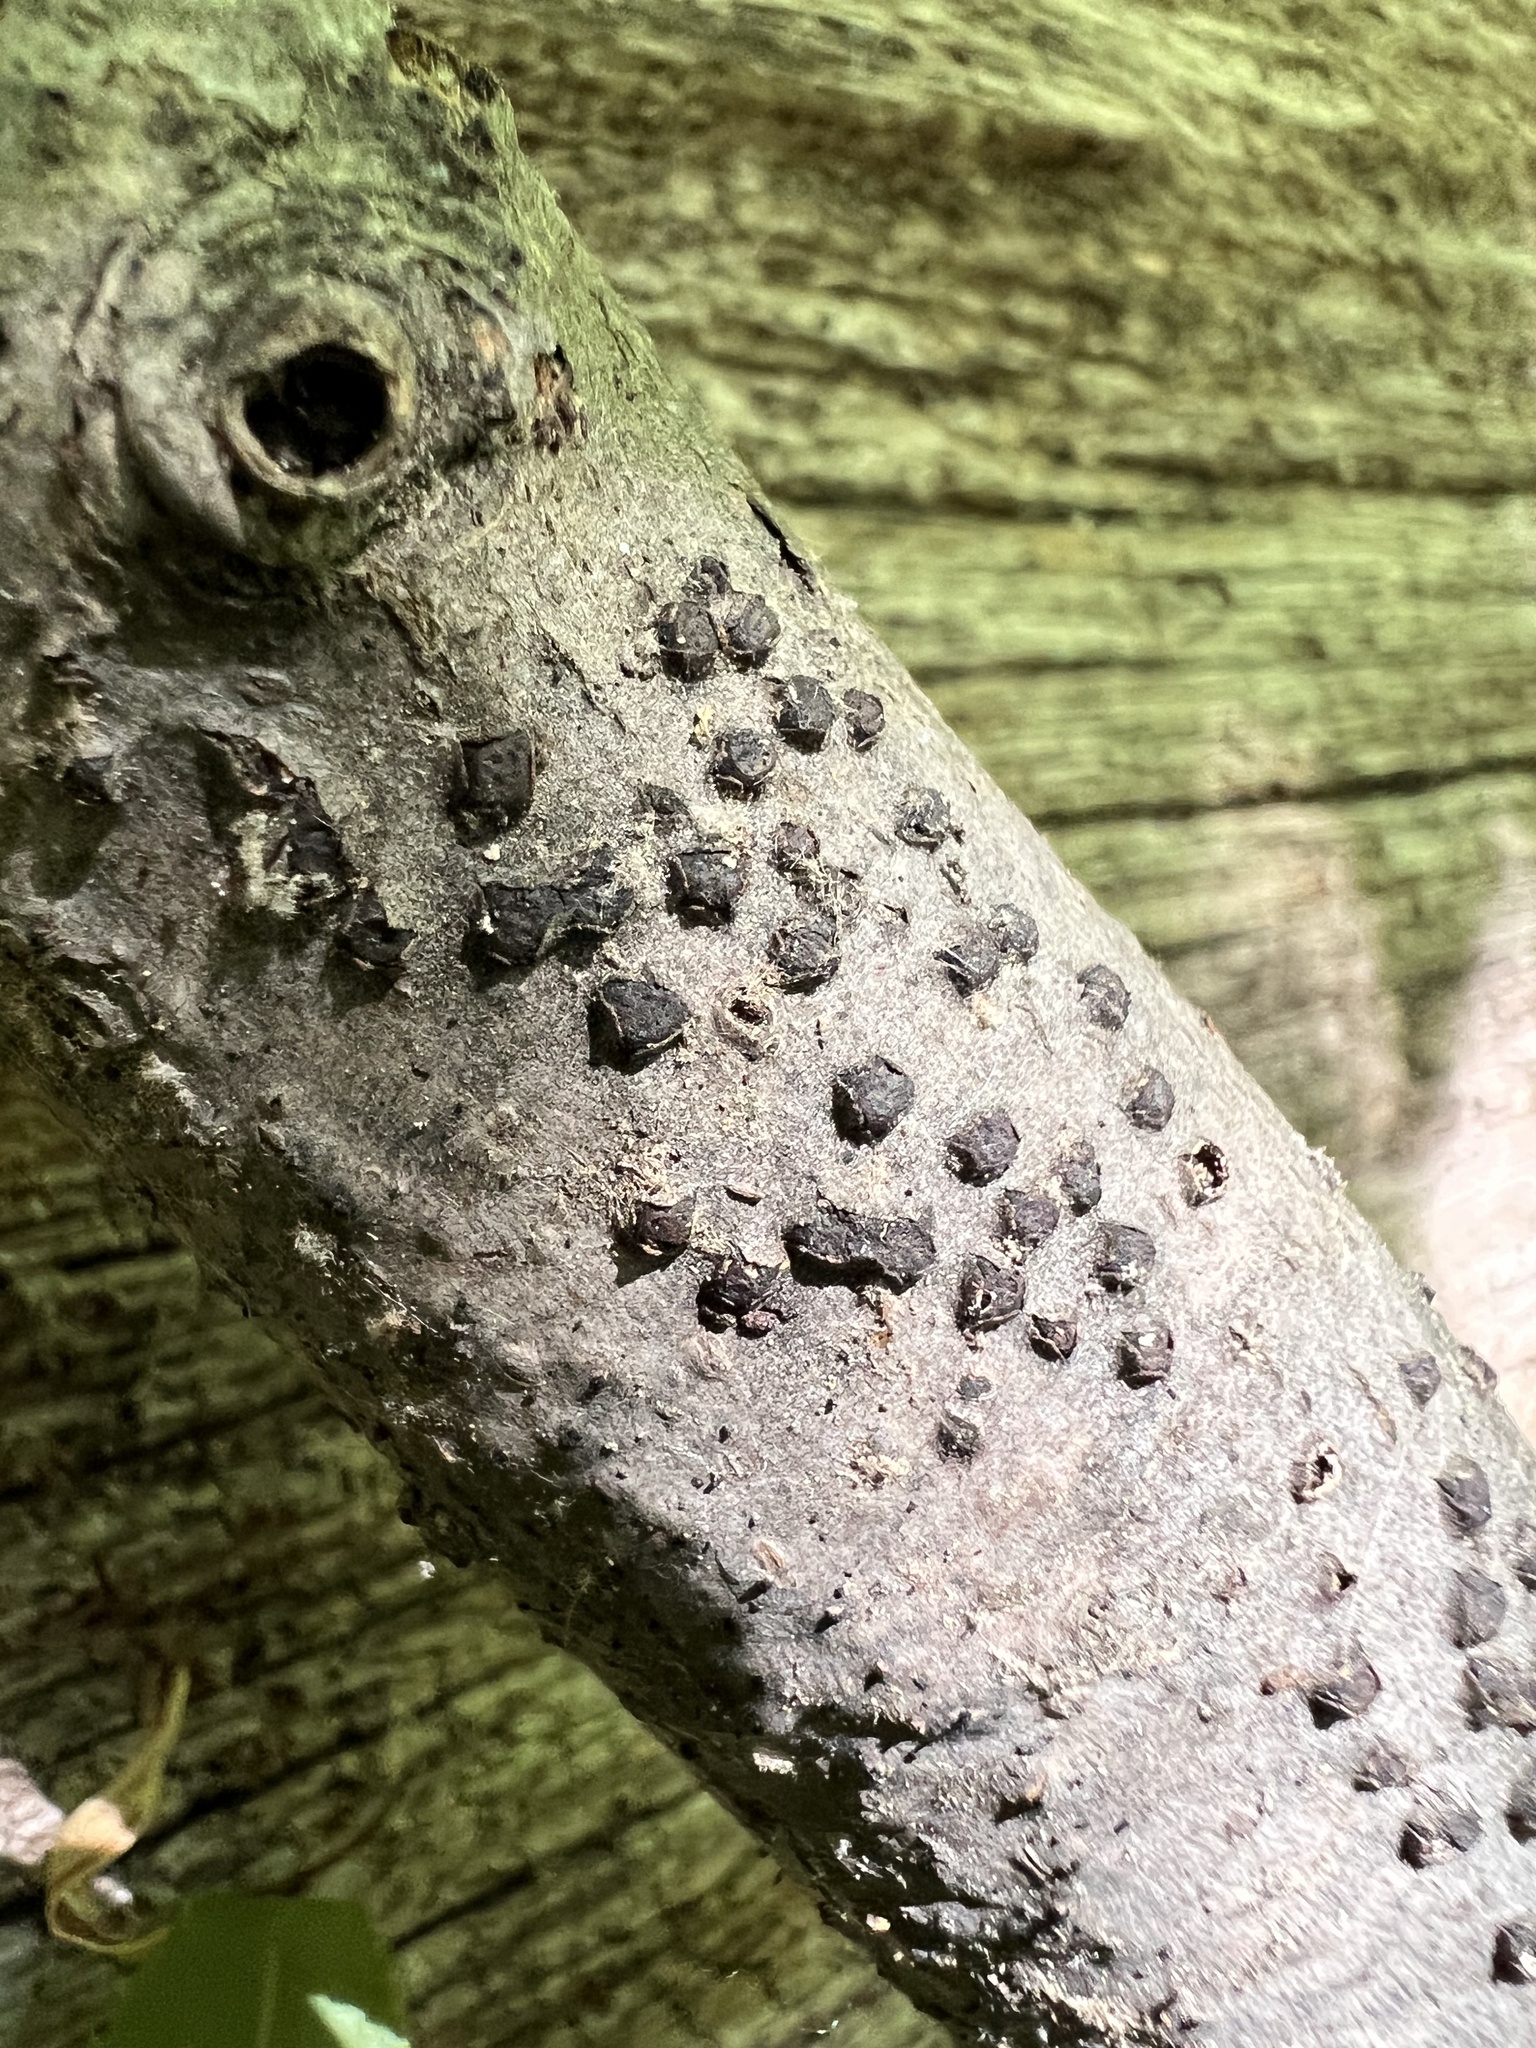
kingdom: Fungi
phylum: Ascomycota
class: Sordariomycetes
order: Xylariales
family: Diatrypaceae
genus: Diatrype
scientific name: Diatrype disciformis
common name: Beech barkspot
